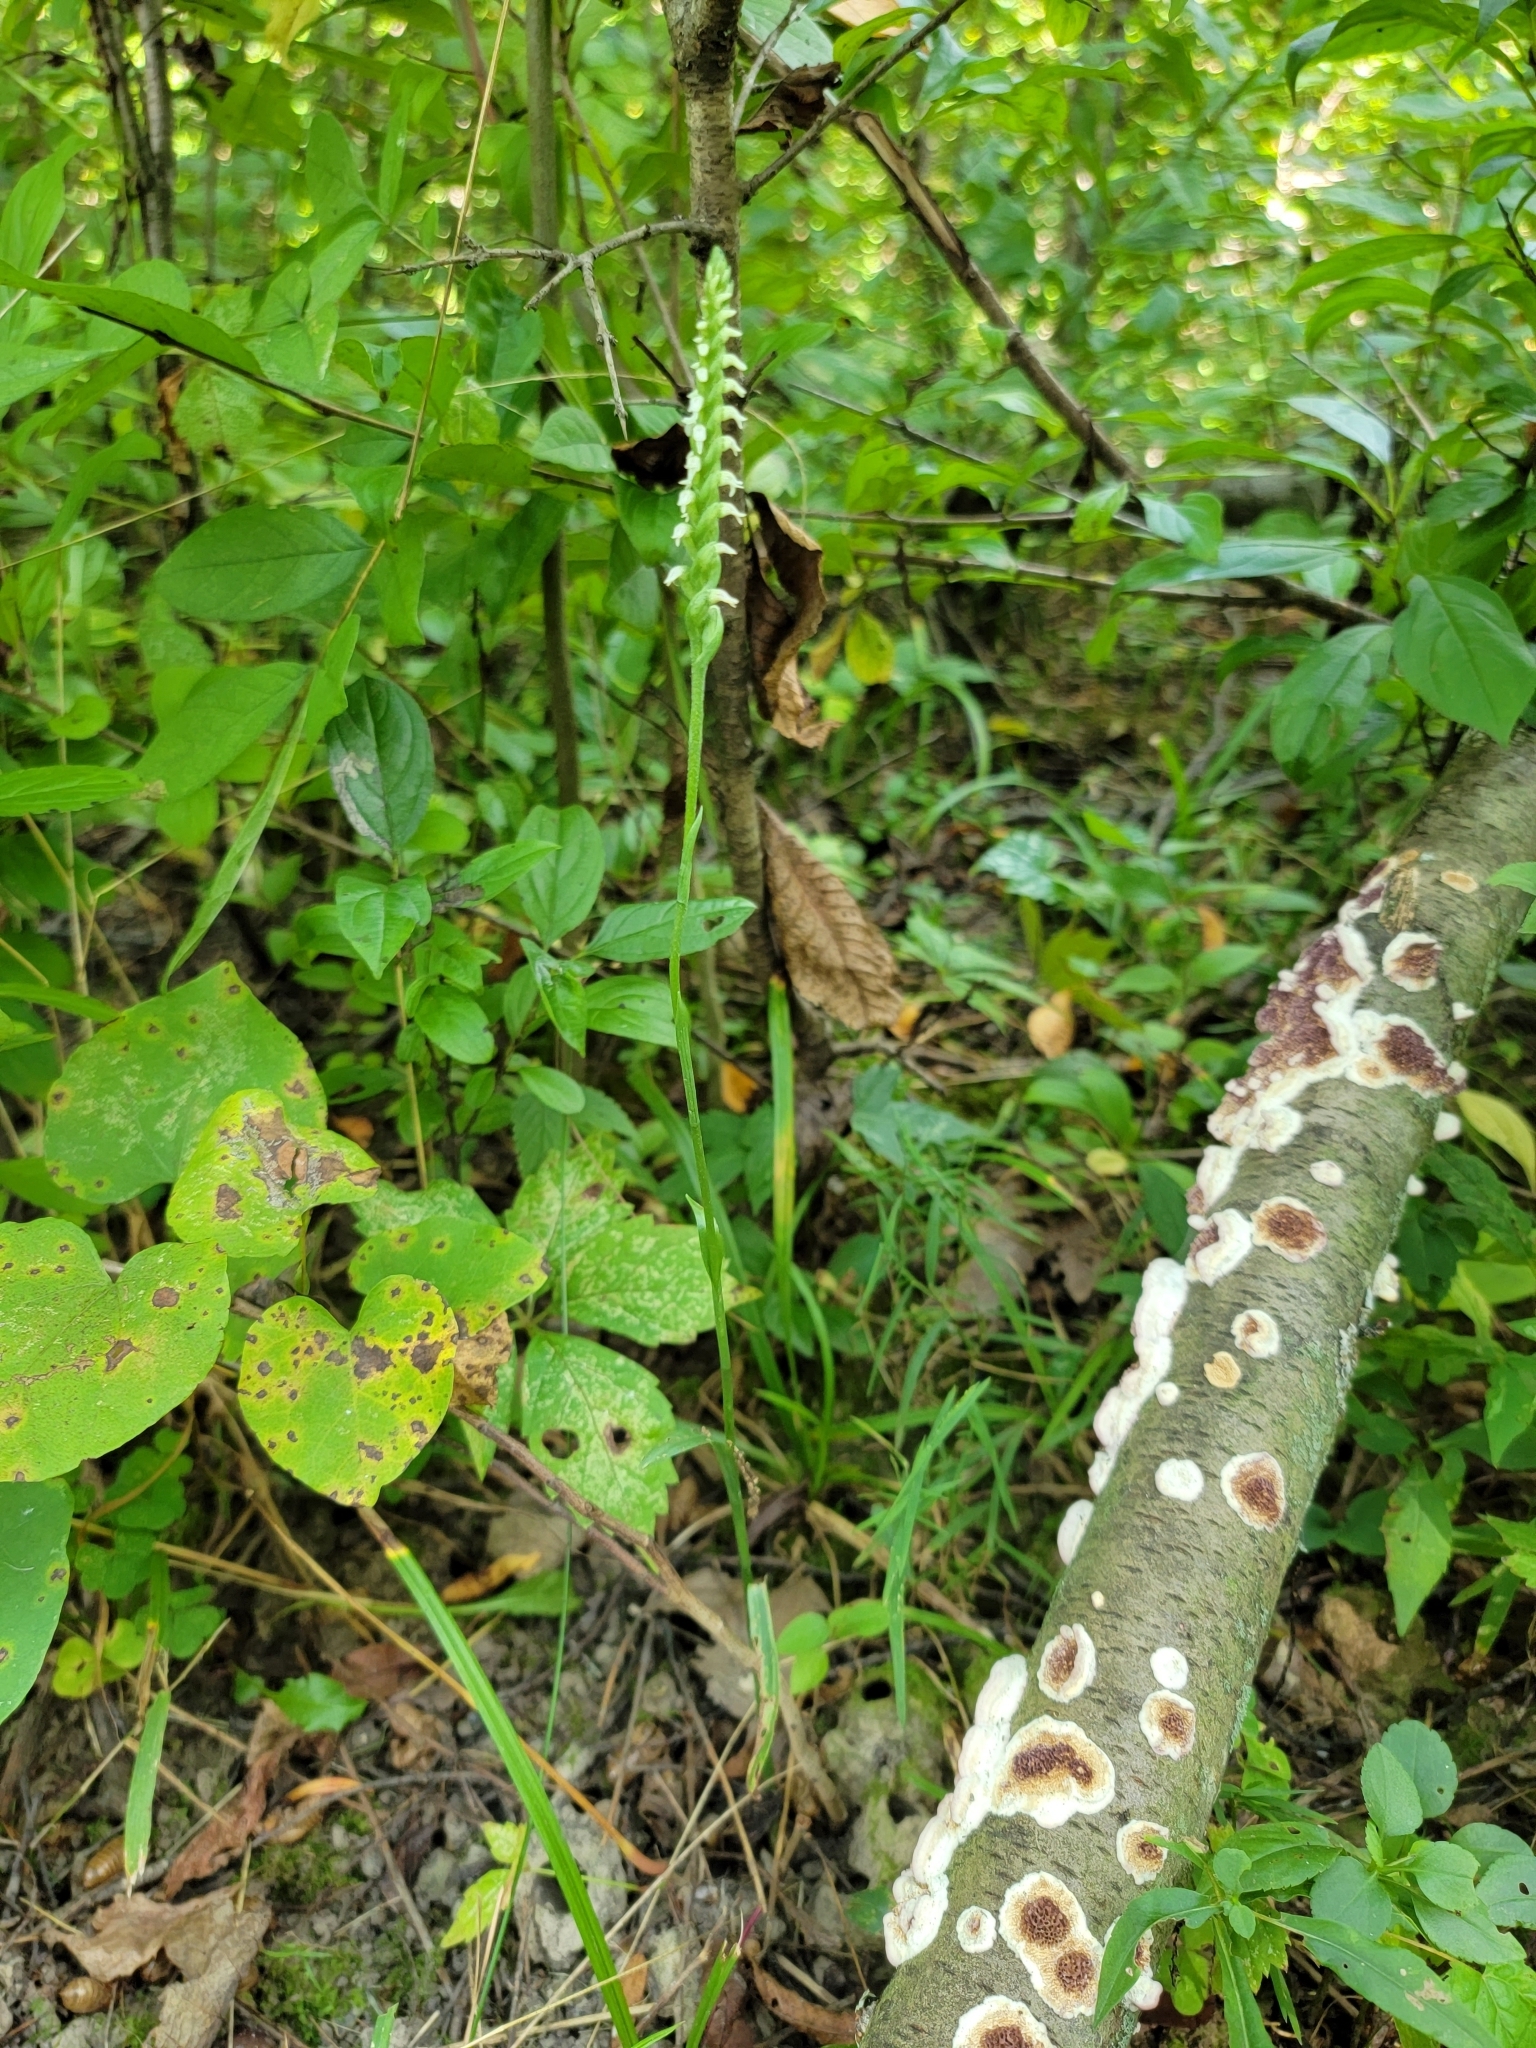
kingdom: Plantae
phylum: Tracheophyta
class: Liliopsida
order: Asparagales
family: Orchidaceae
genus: Spiranthes
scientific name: Spiranthes ovalis
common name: October ladies'-tresses
